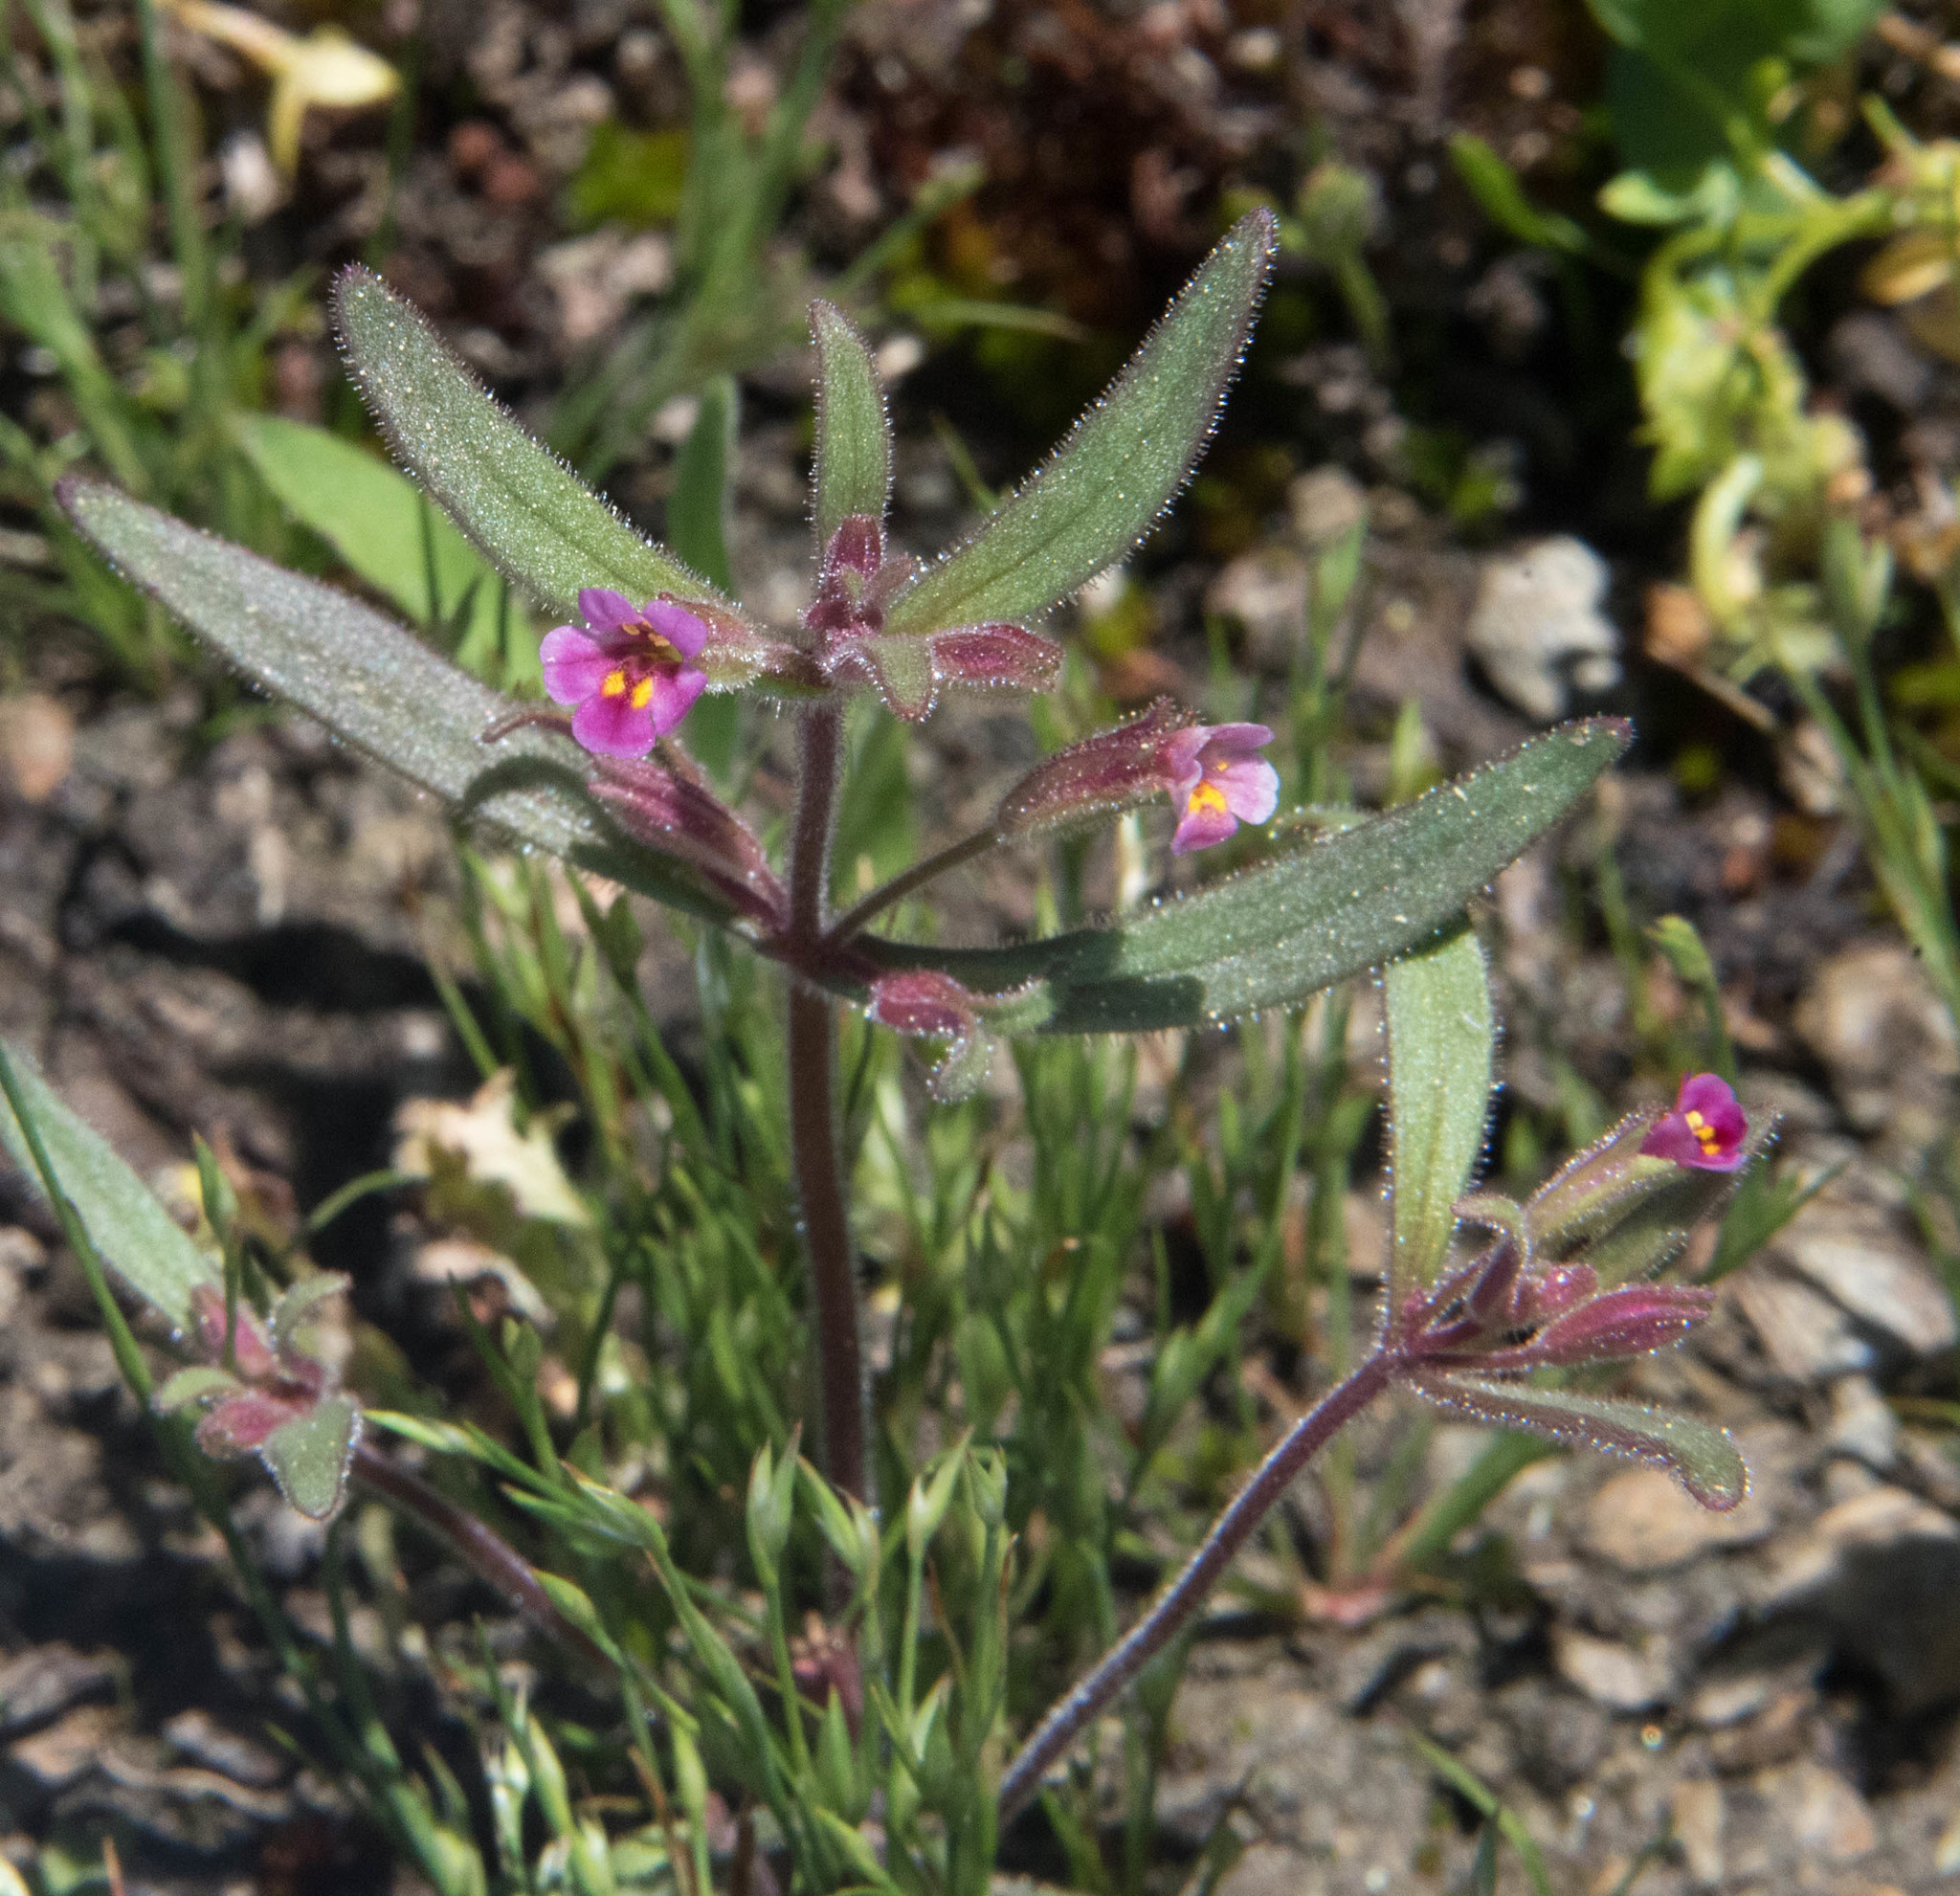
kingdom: Plantae
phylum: Tracheophyta
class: Magnoliopsida
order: Lamiales
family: Phrymaceae
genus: Erythranthe
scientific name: Erythranthe breweri
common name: Brewer's monkeyflower
